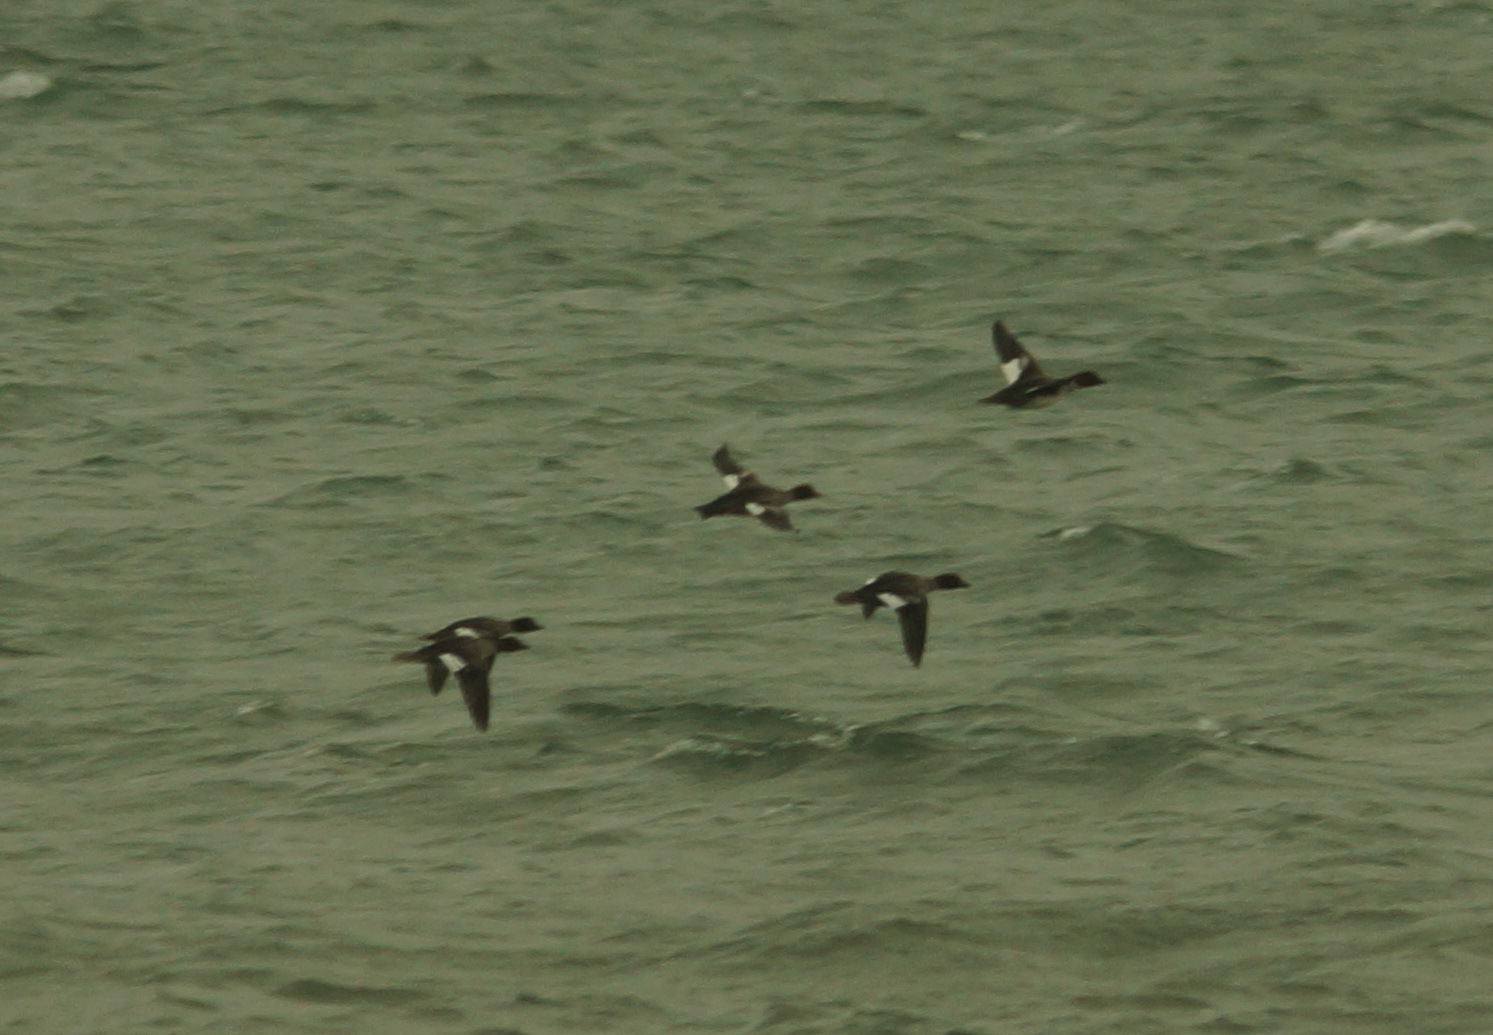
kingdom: Animalia
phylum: Chordata
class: Aves
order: Anseriformes
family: Anatidae
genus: Bucephala
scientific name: Bucephala clangula
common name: Common goldeneye
